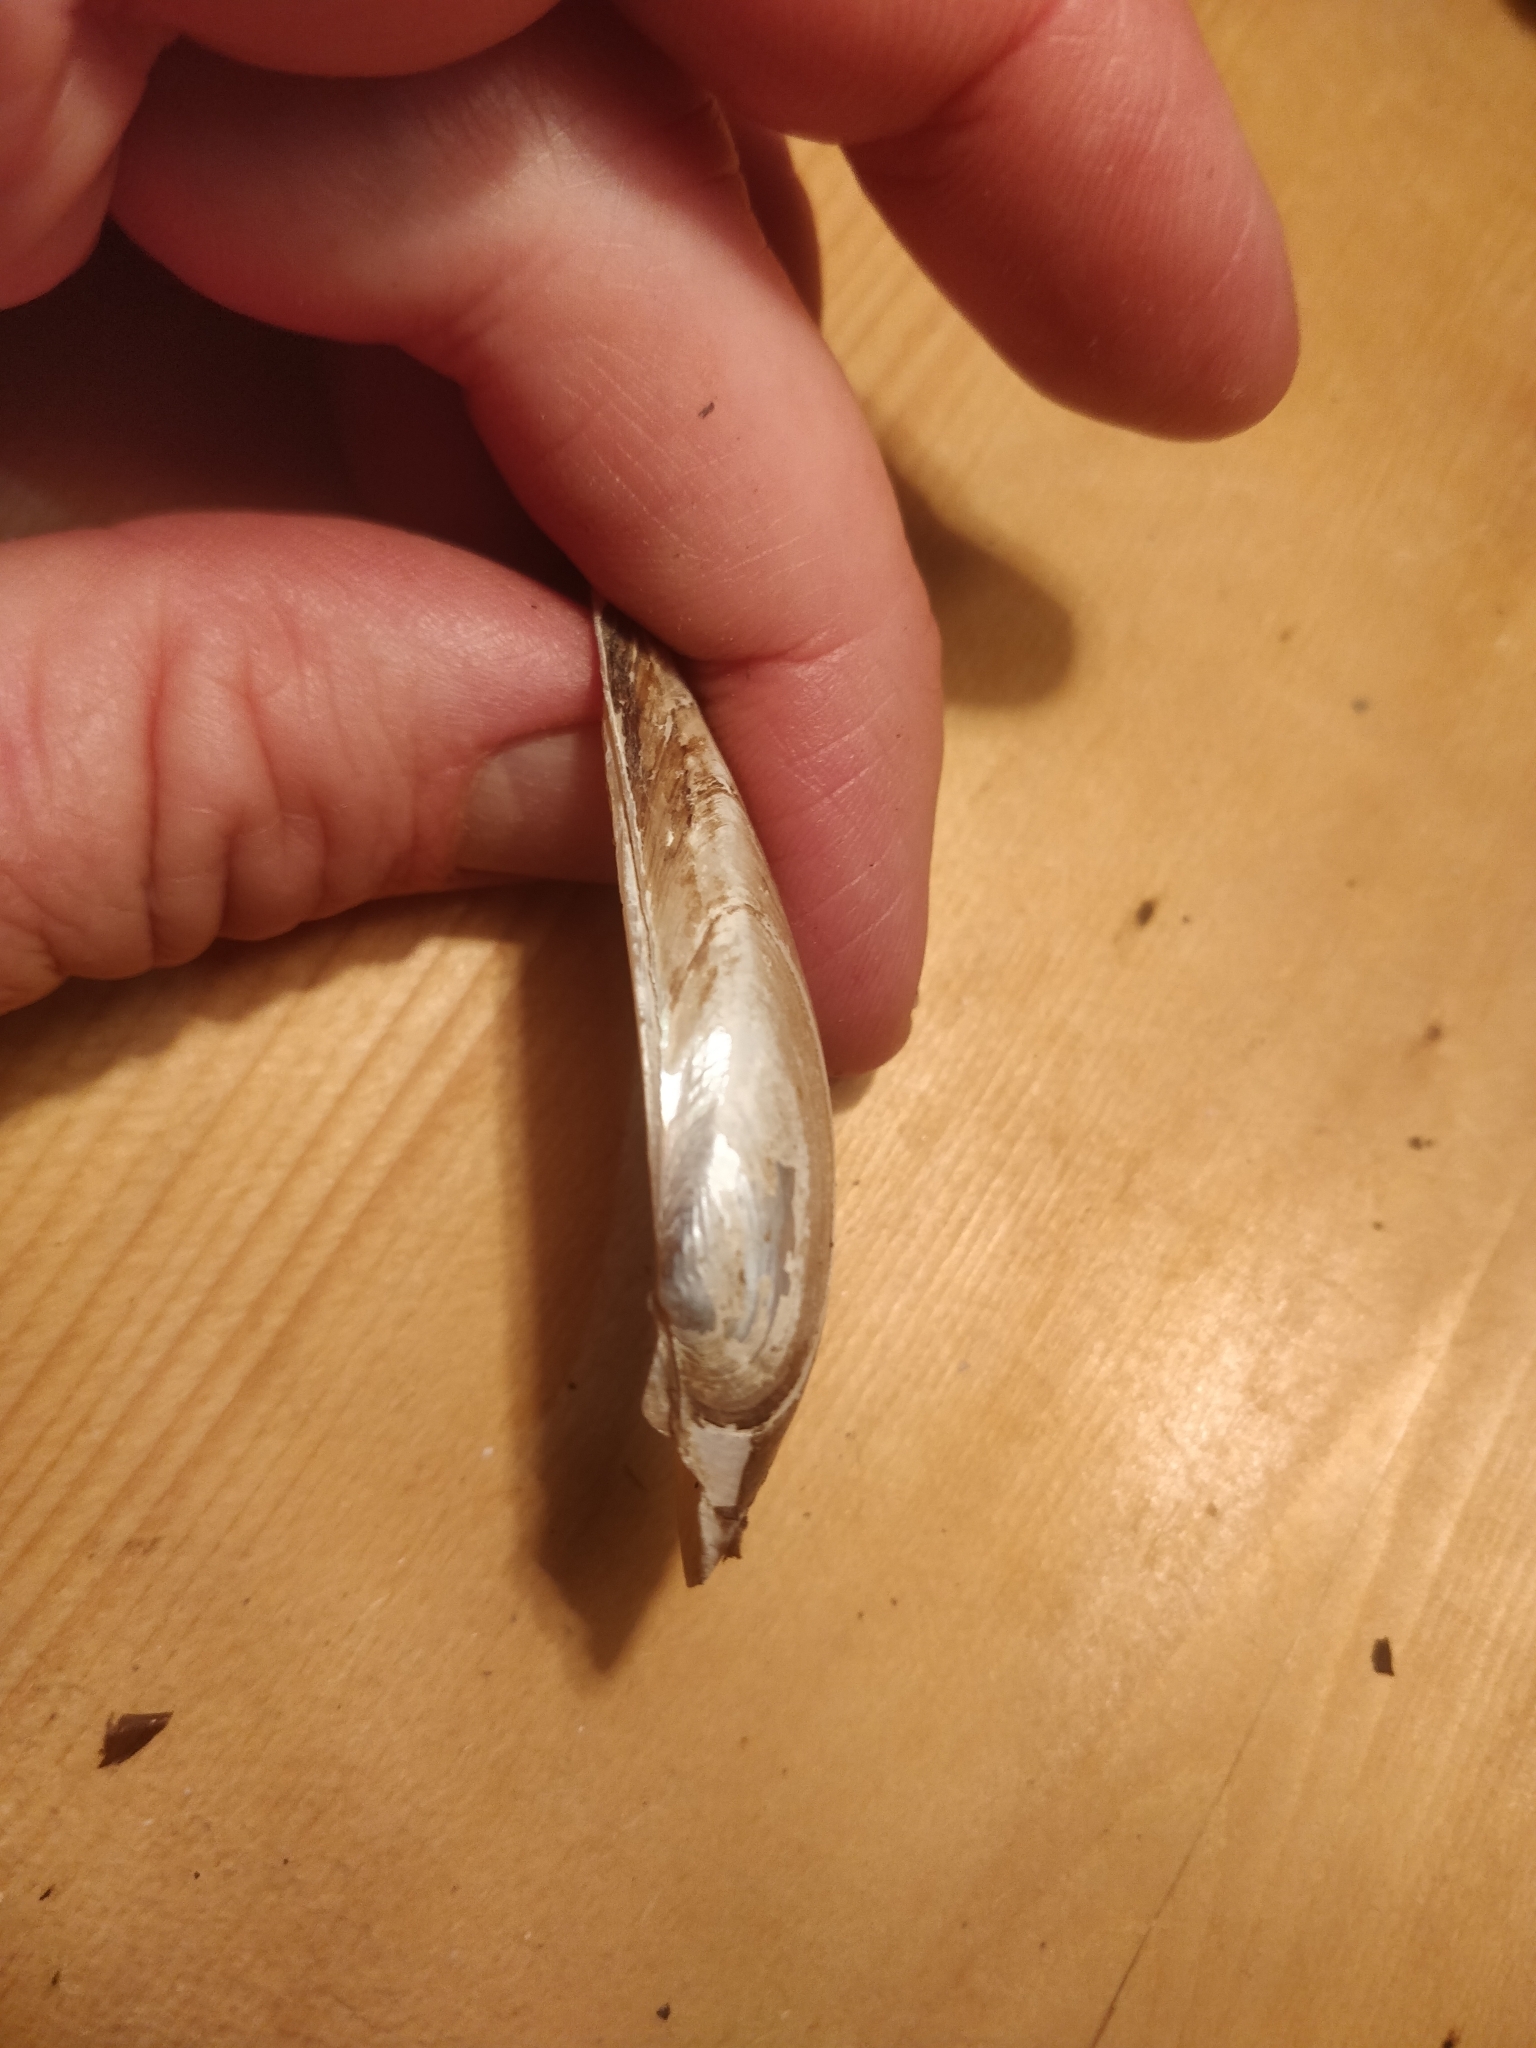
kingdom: Animalia
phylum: Mollusca
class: Bivalvia
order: Unionida
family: Unionidae
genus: Lampsilis
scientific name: Lampsilis teres
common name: Yellow sandshell
